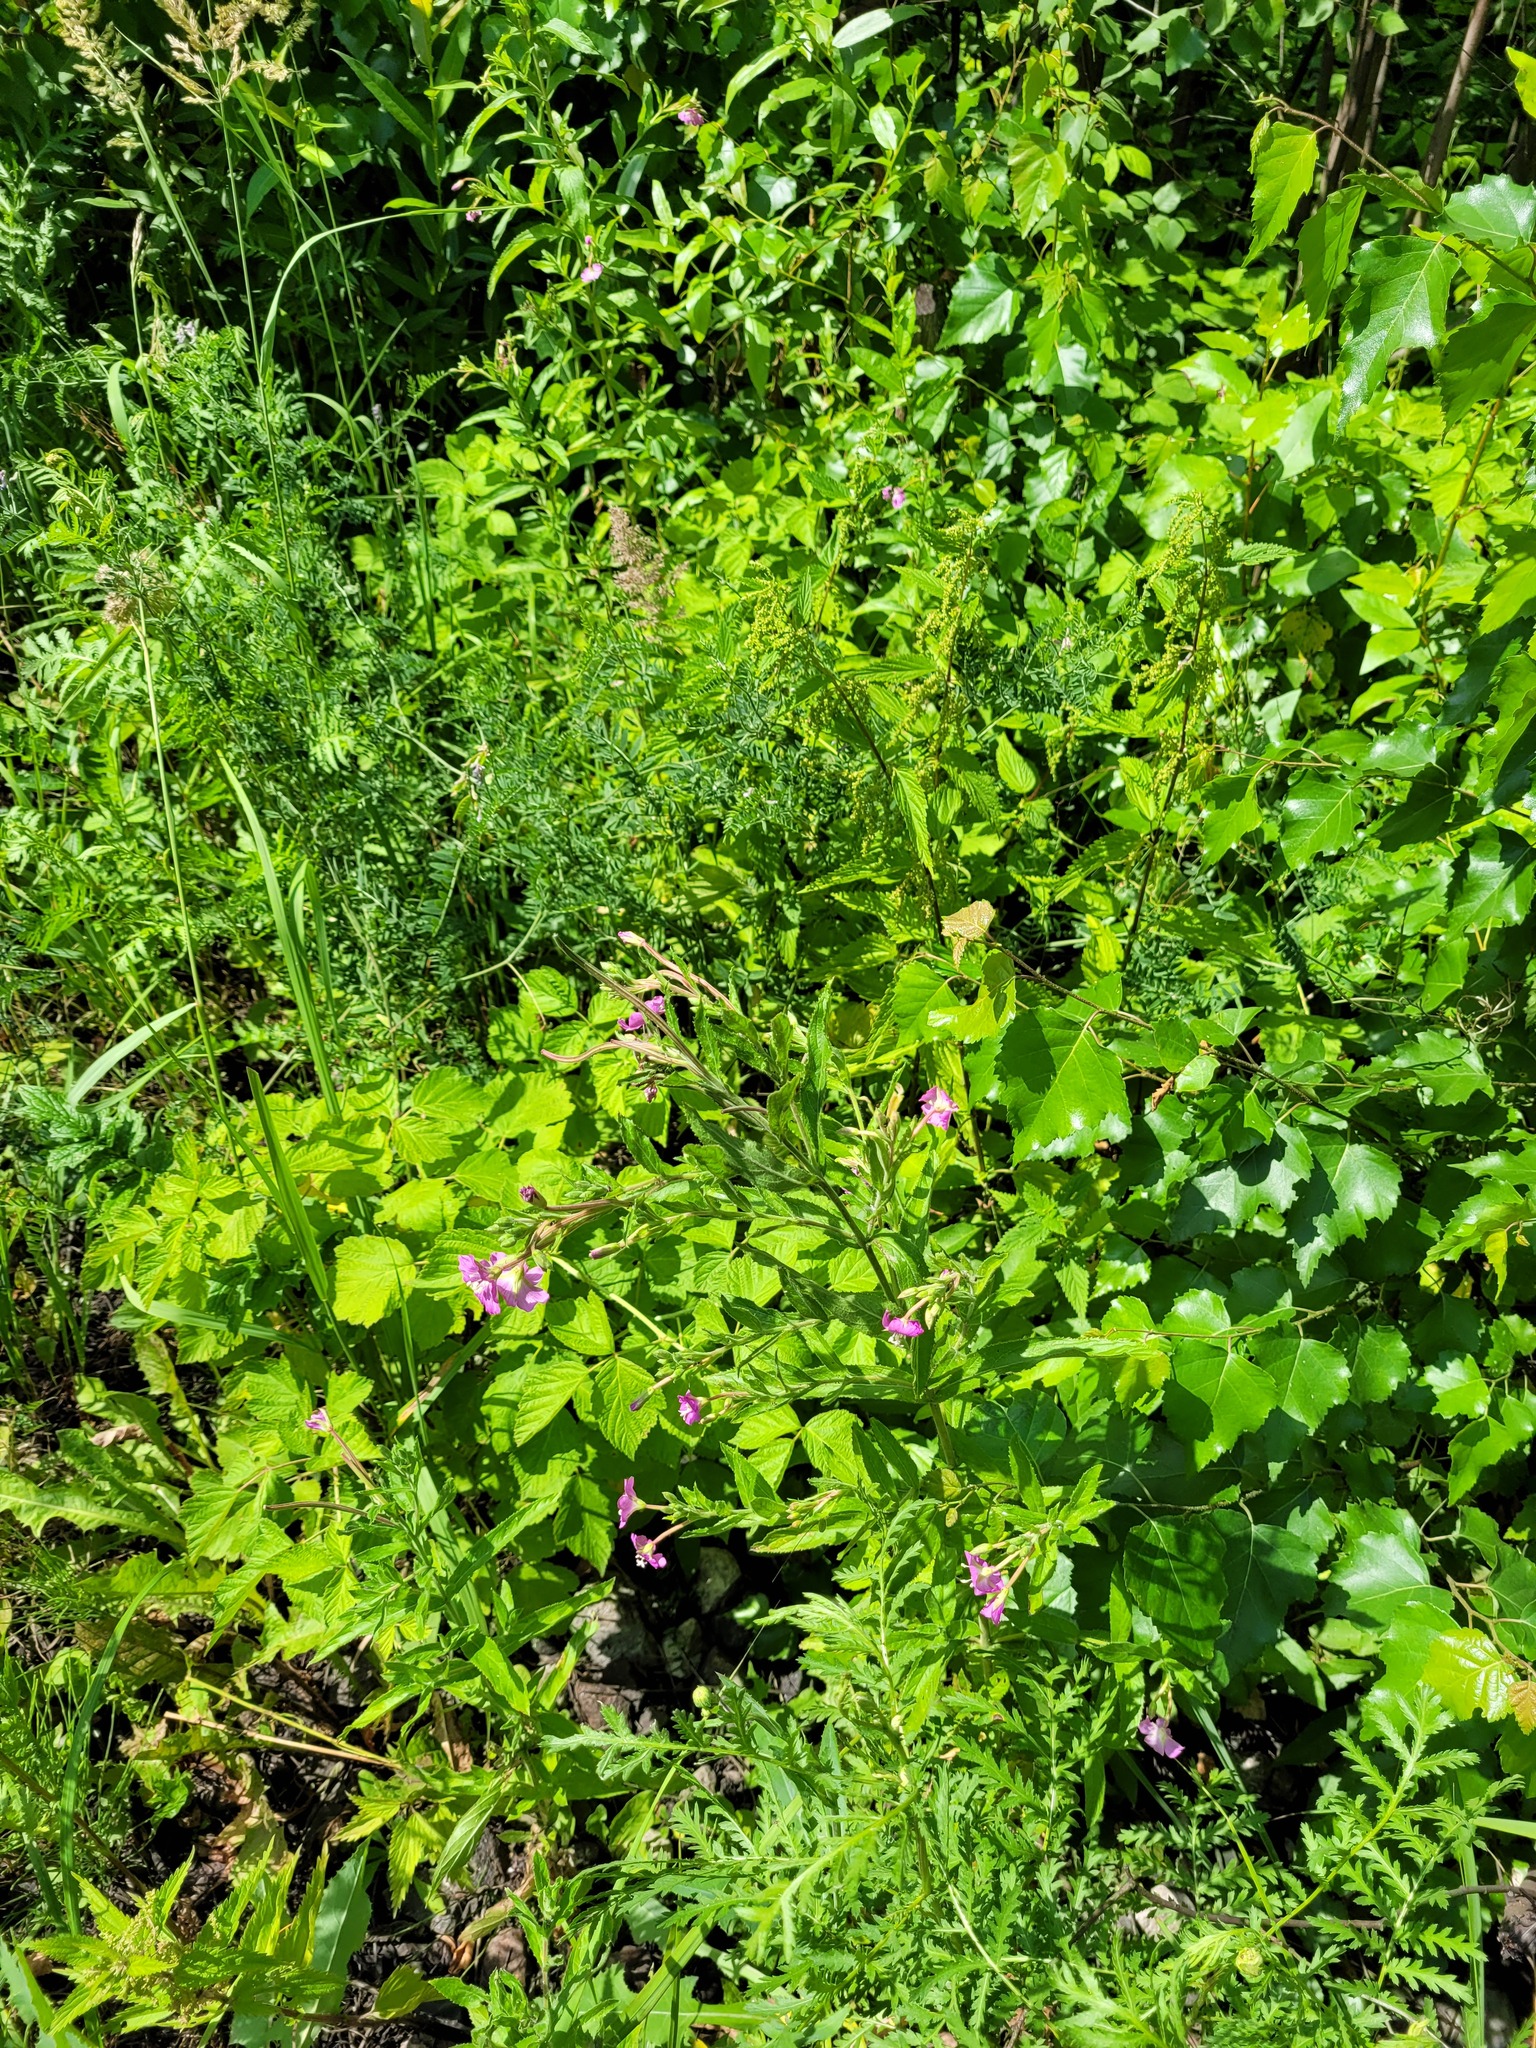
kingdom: Plantae
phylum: Tracheophyta
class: Magnoliopsida
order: Myrtales
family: Onagraceae
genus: Epilobium
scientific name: Epilobium hirsutum
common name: Great willowherb
